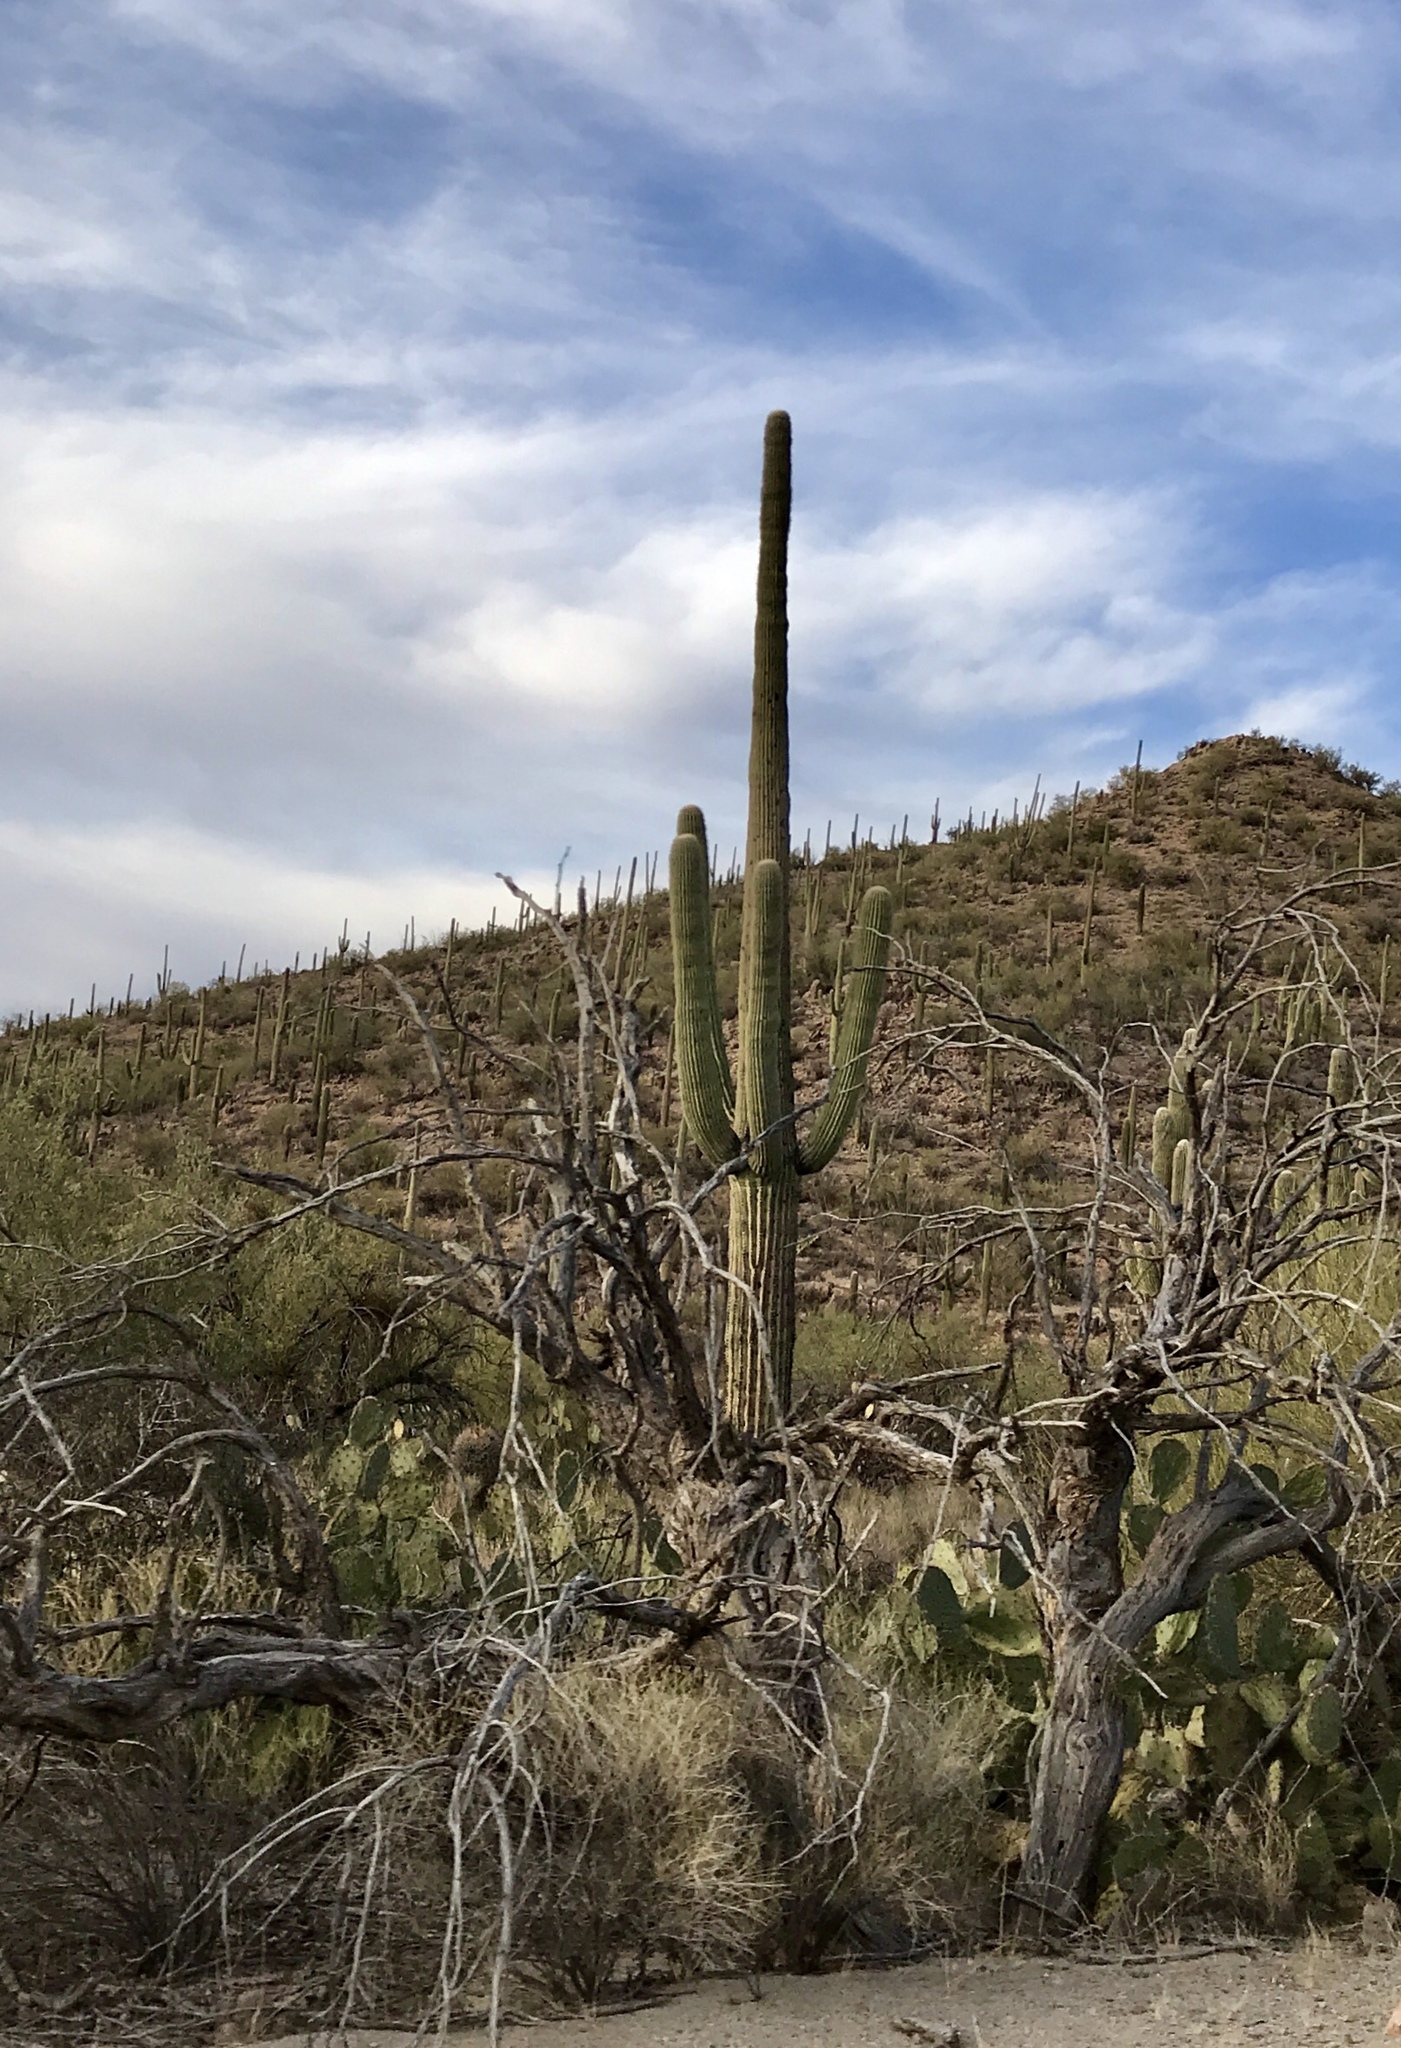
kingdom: Plantae
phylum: Tracheophyta
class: Magnoliopsida
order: Caryophyllales
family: Cactaceae
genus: Carnegiea
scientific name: Carnegiea gigantea
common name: Saguaro
